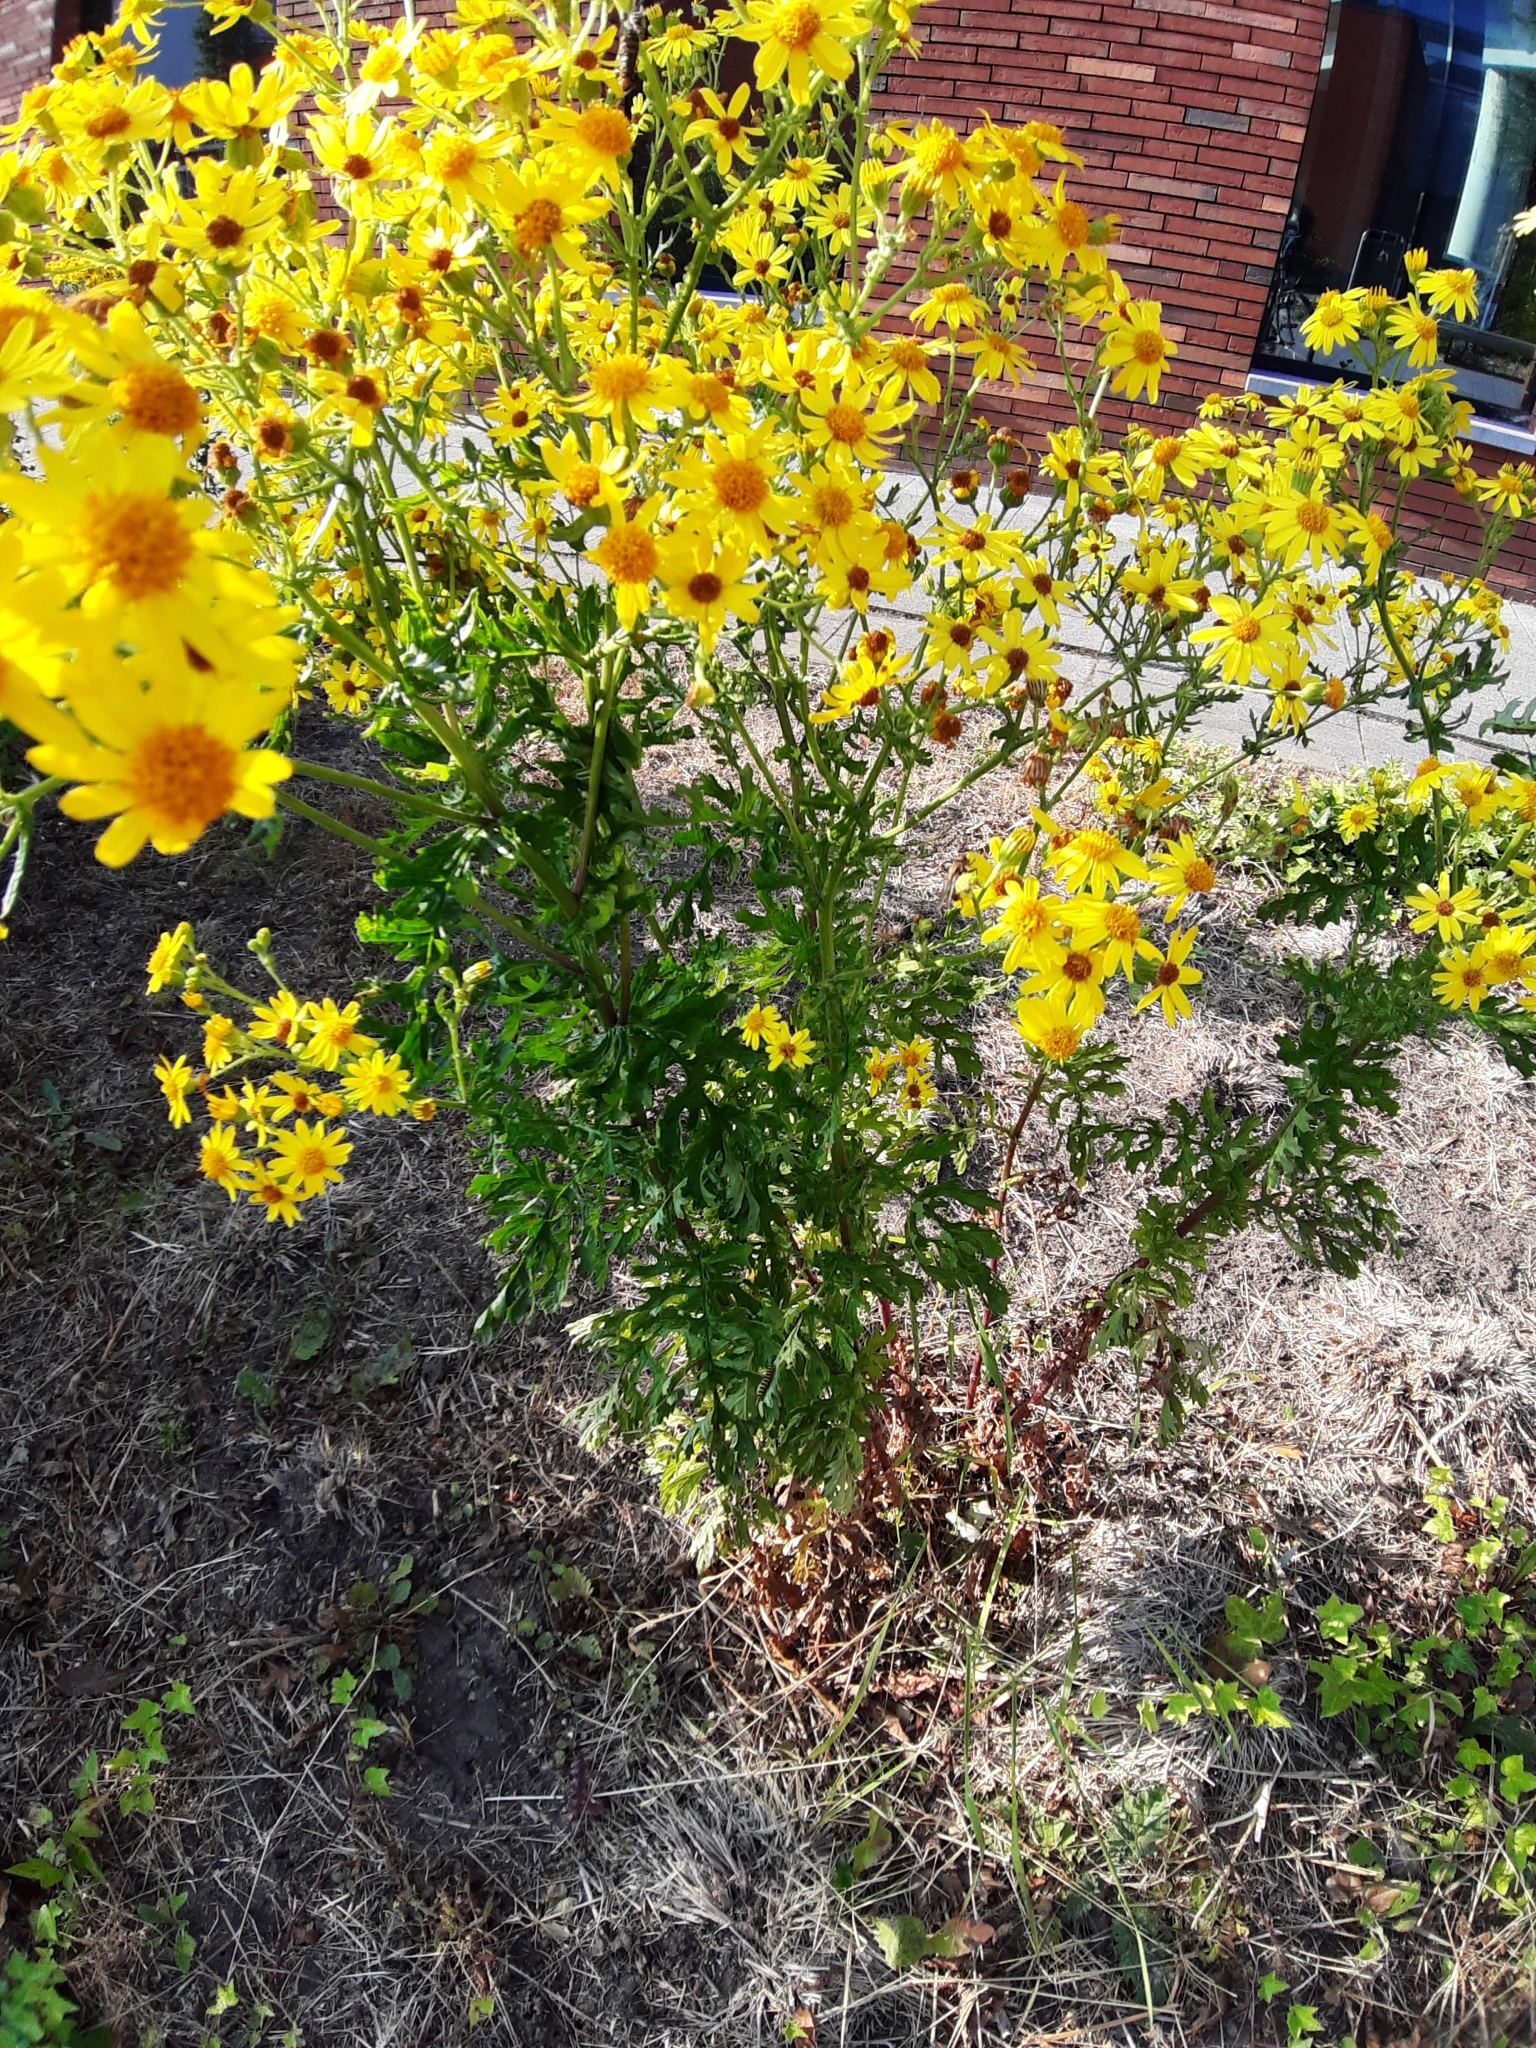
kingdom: Plantae
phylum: Tracheophyta
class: Magnoliopsida
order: Asterales
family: Asteraceae
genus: Jacobaea
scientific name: Jacobaea vulgaris
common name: Stinking willie
